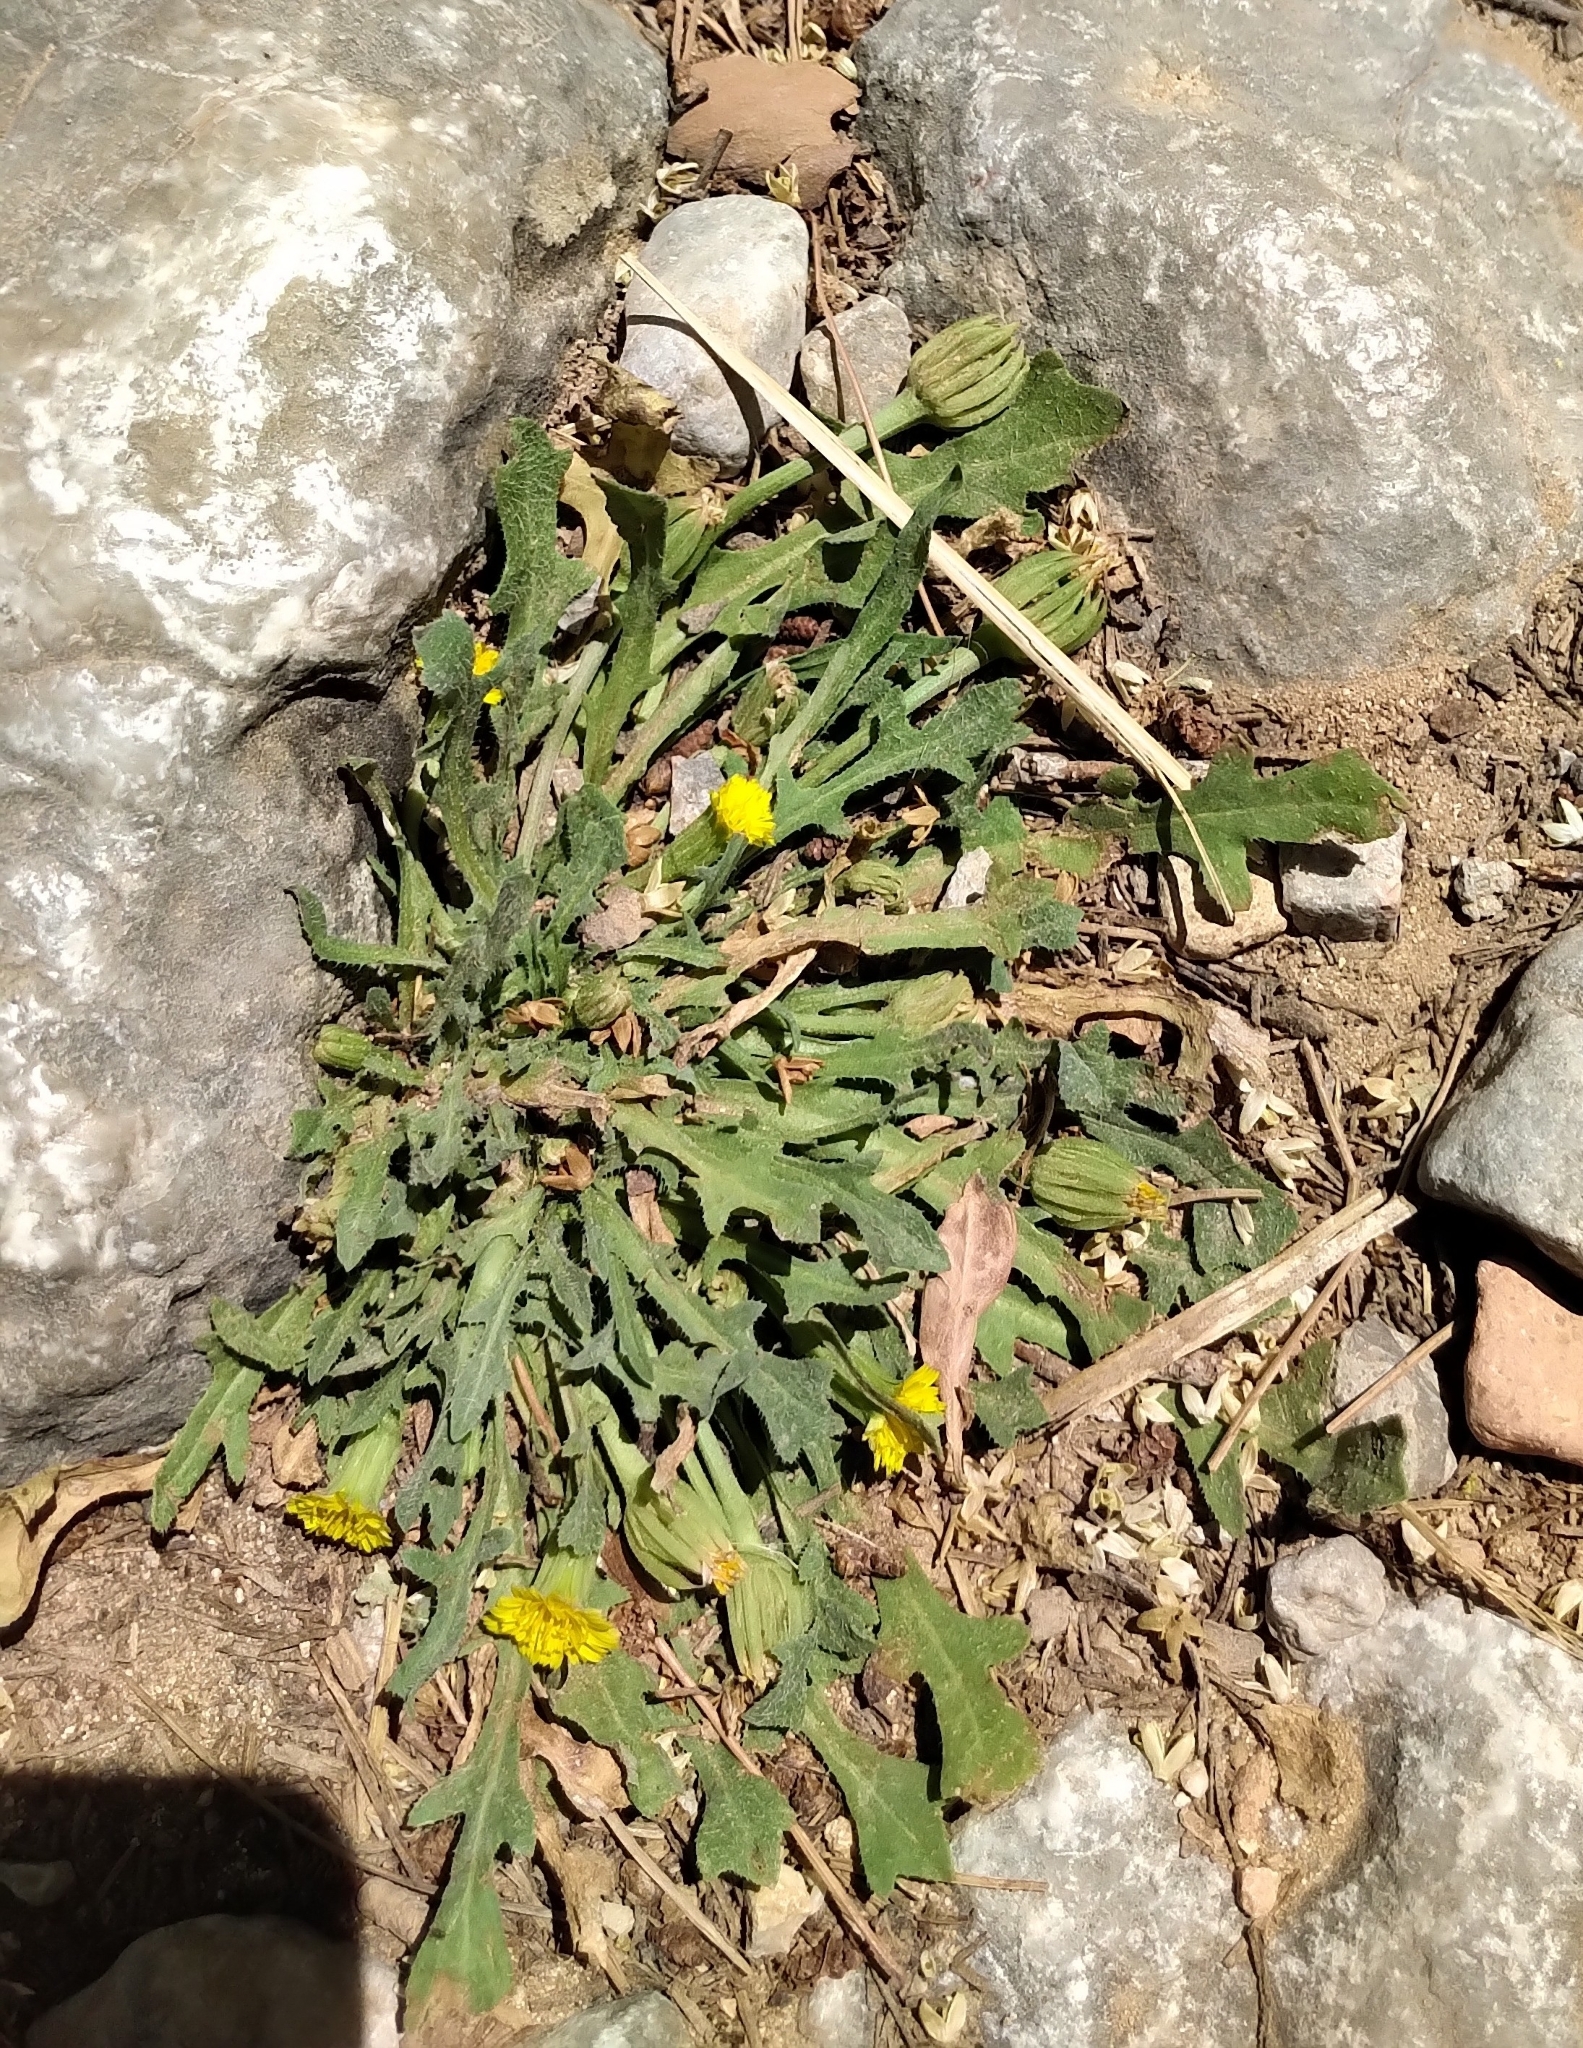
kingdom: Plantae
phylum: Tracheophyta
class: Magnoliopsida
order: Asterales
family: Asteraceae
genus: Hedypnois
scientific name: Hedypnois rhagadioloides
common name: Cretan weed
